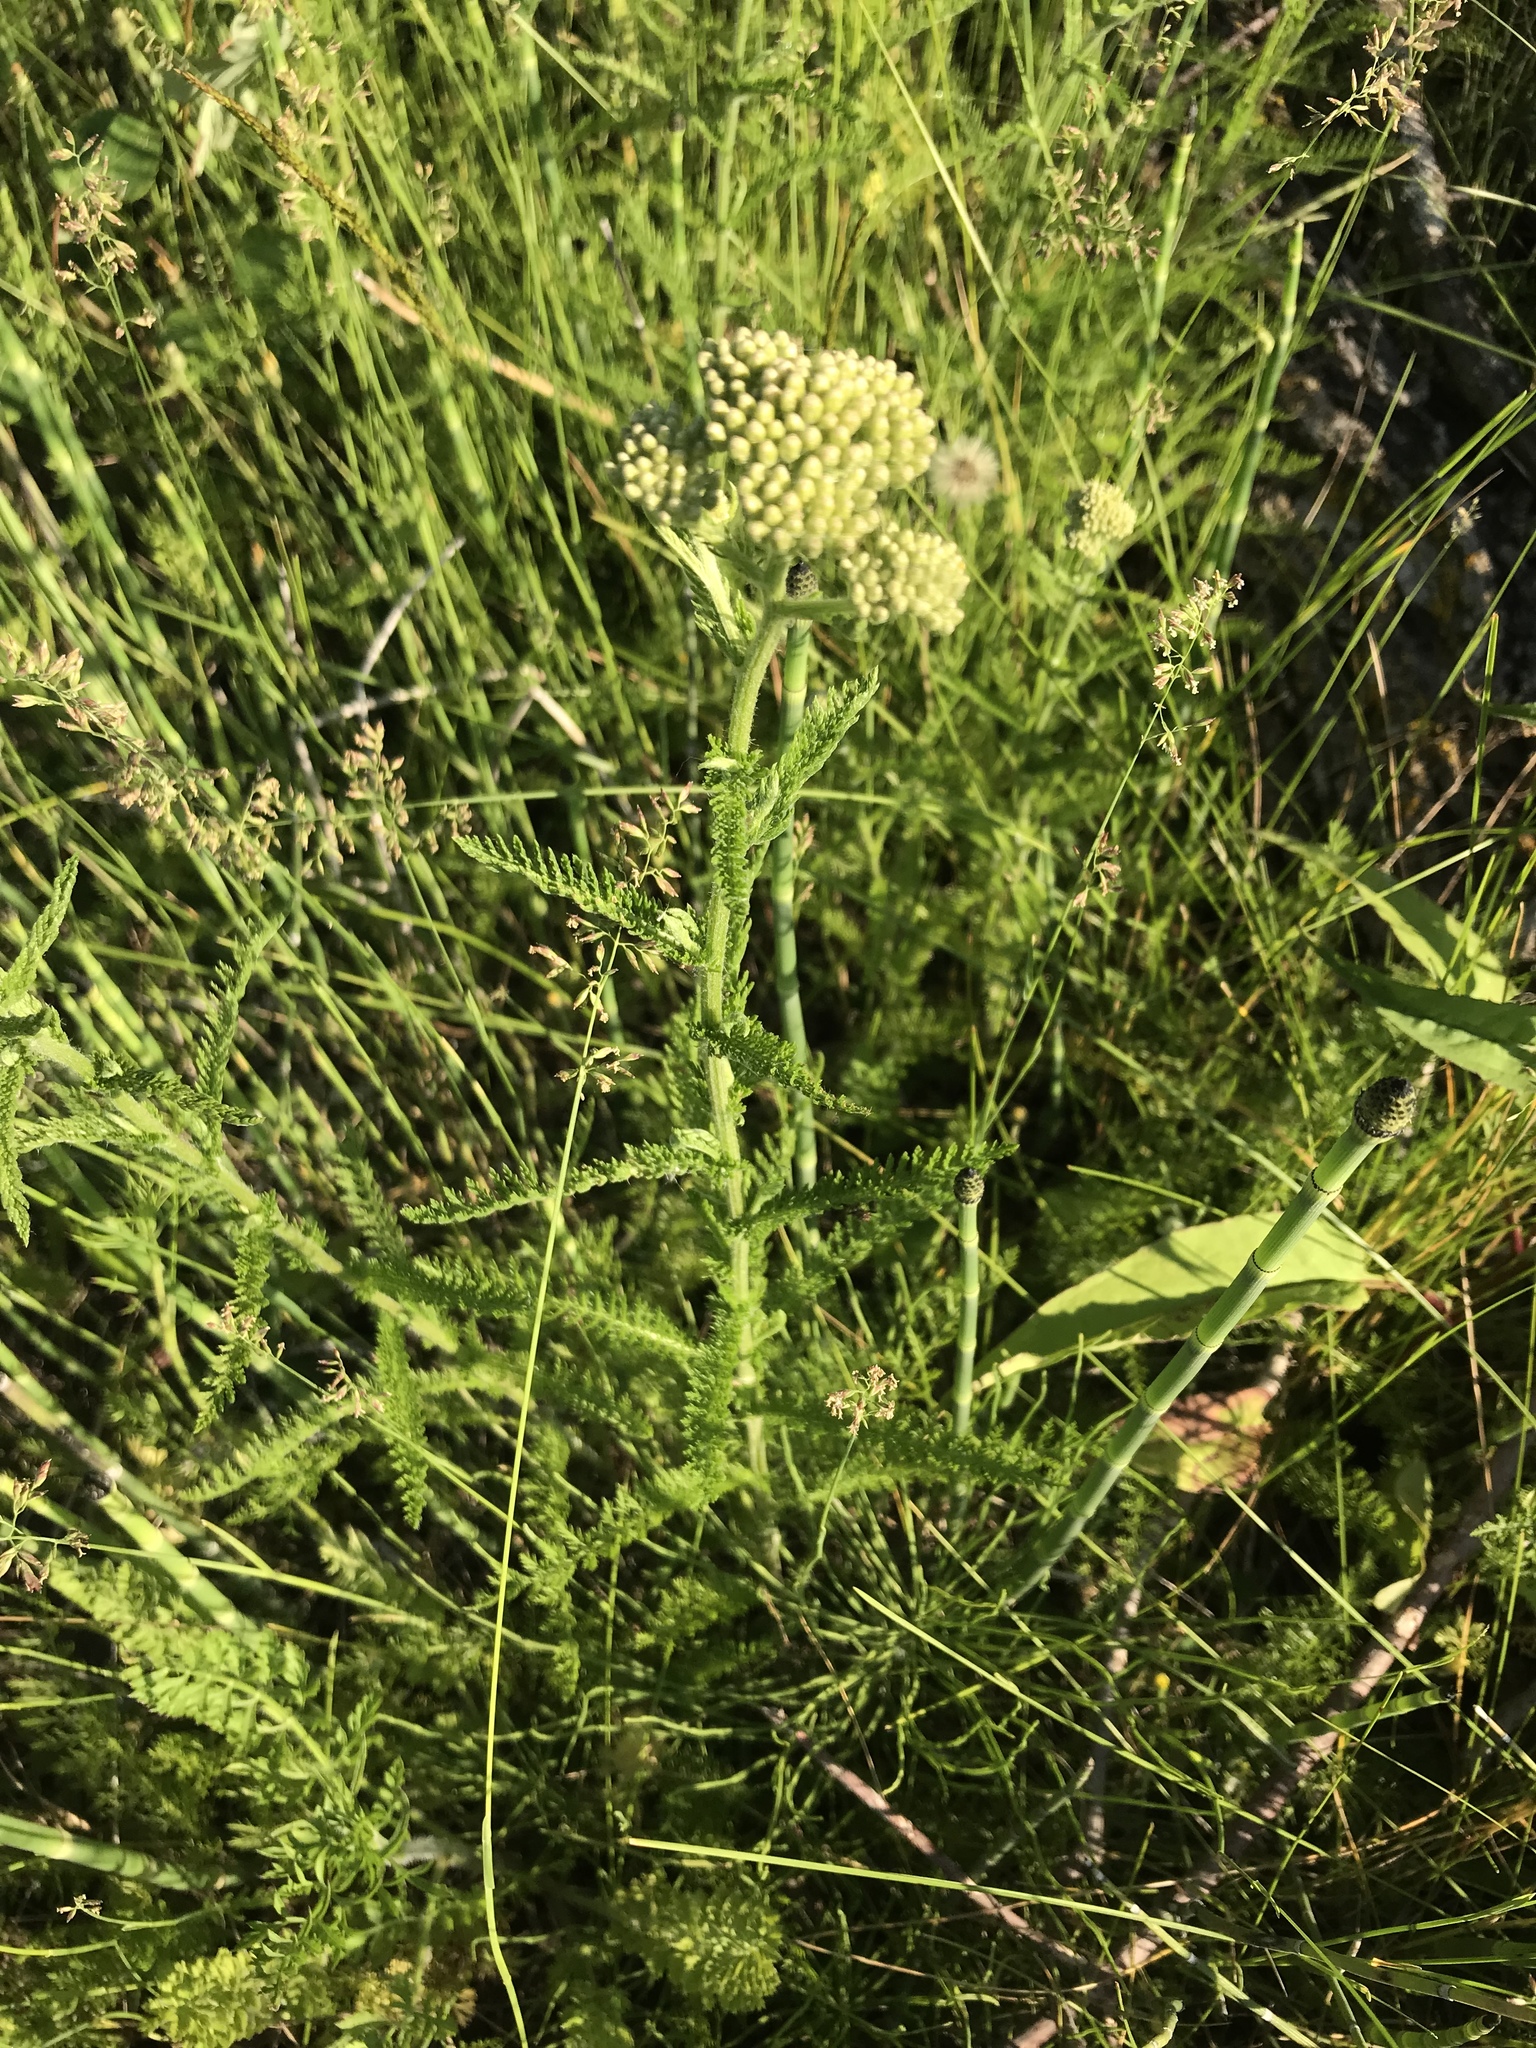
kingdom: Plantae
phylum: Tracheophyta
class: Magnoliopsida
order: Asterales
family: Asteraceae
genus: Achillea
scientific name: Achillea millefolium
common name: Yarrow
